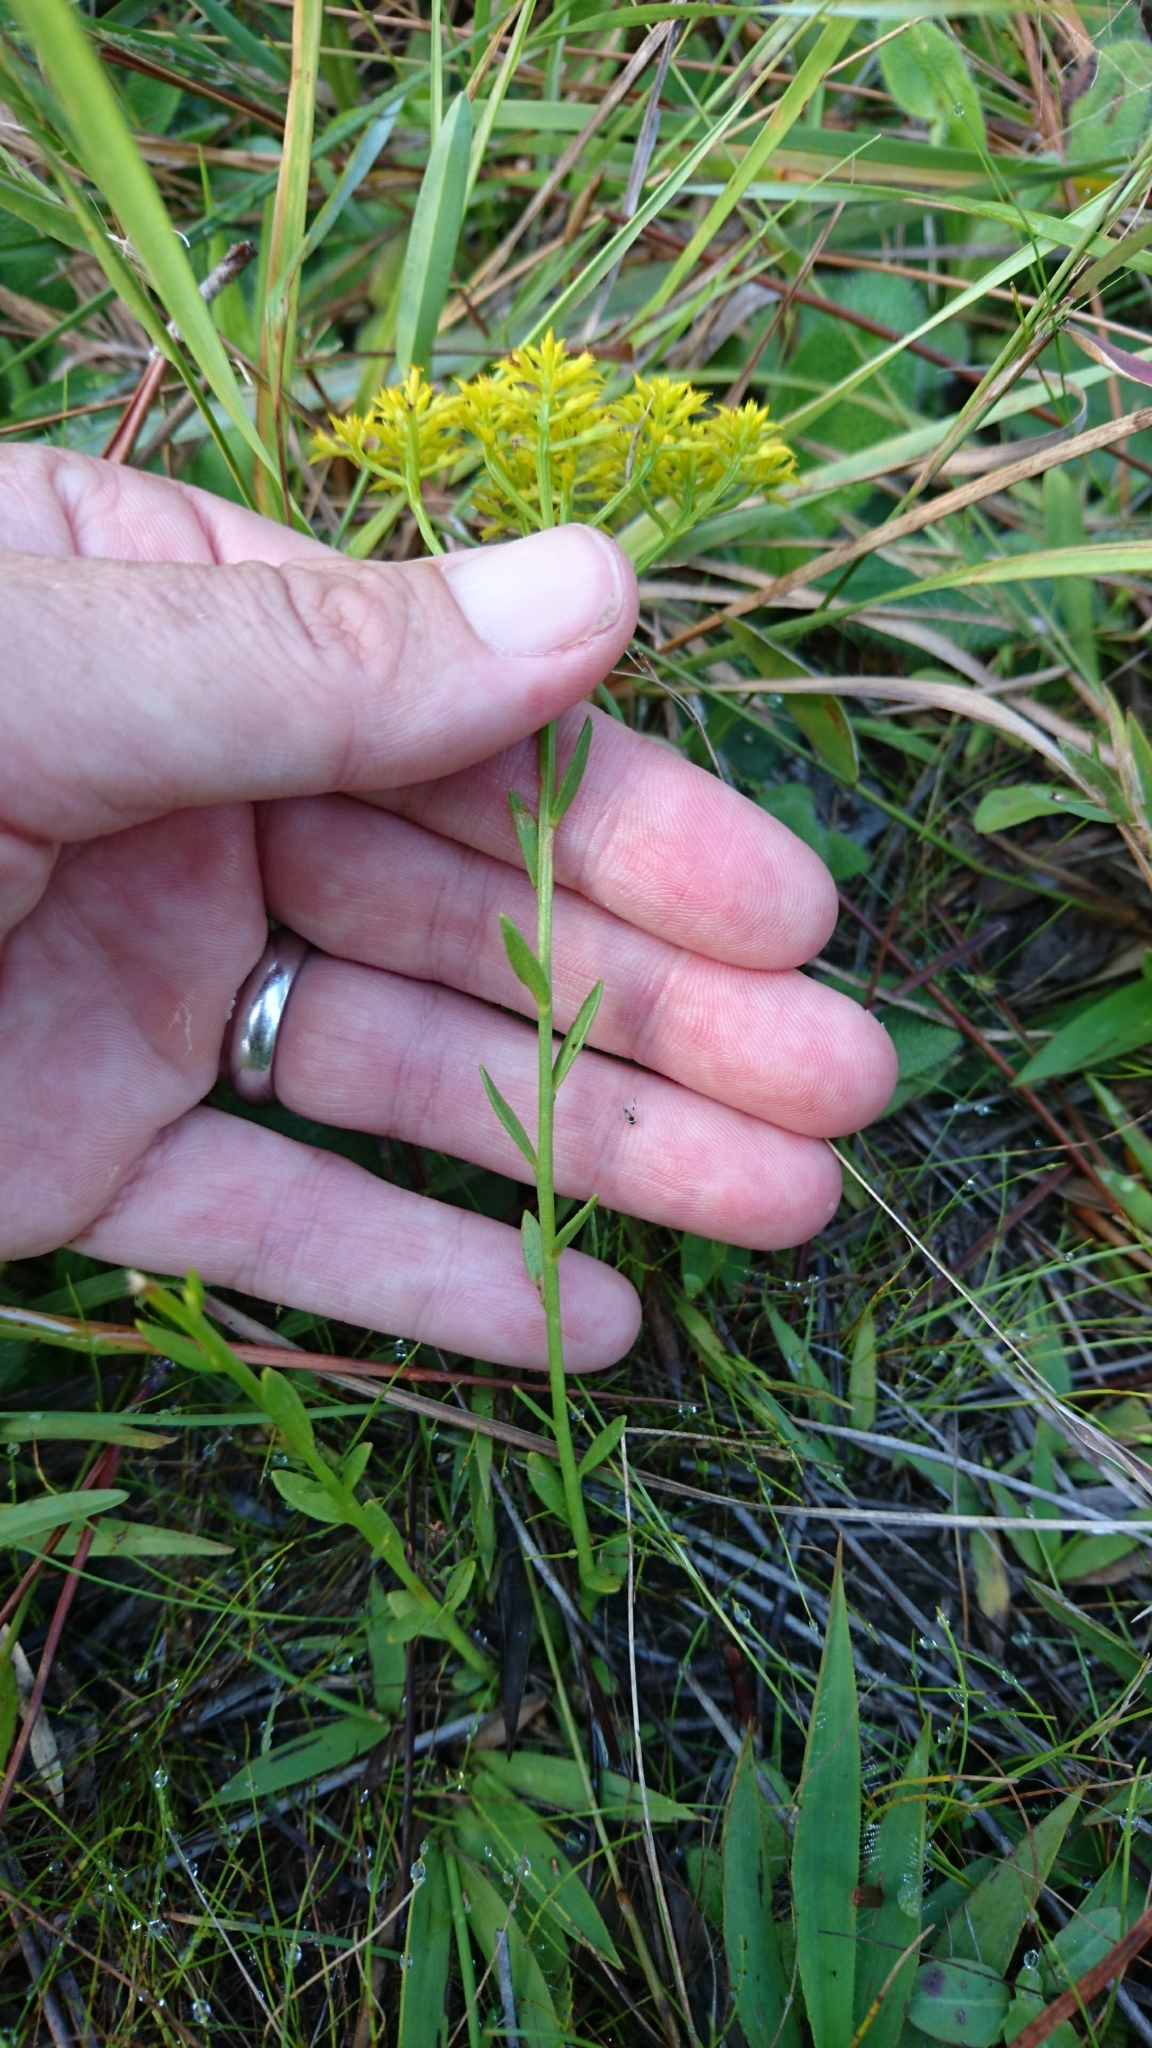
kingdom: Plantae
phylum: Tracheophyta
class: Magnoliopsida
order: Fabales
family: Polygalaceae
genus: Polygala
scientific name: Polygala ramosa
